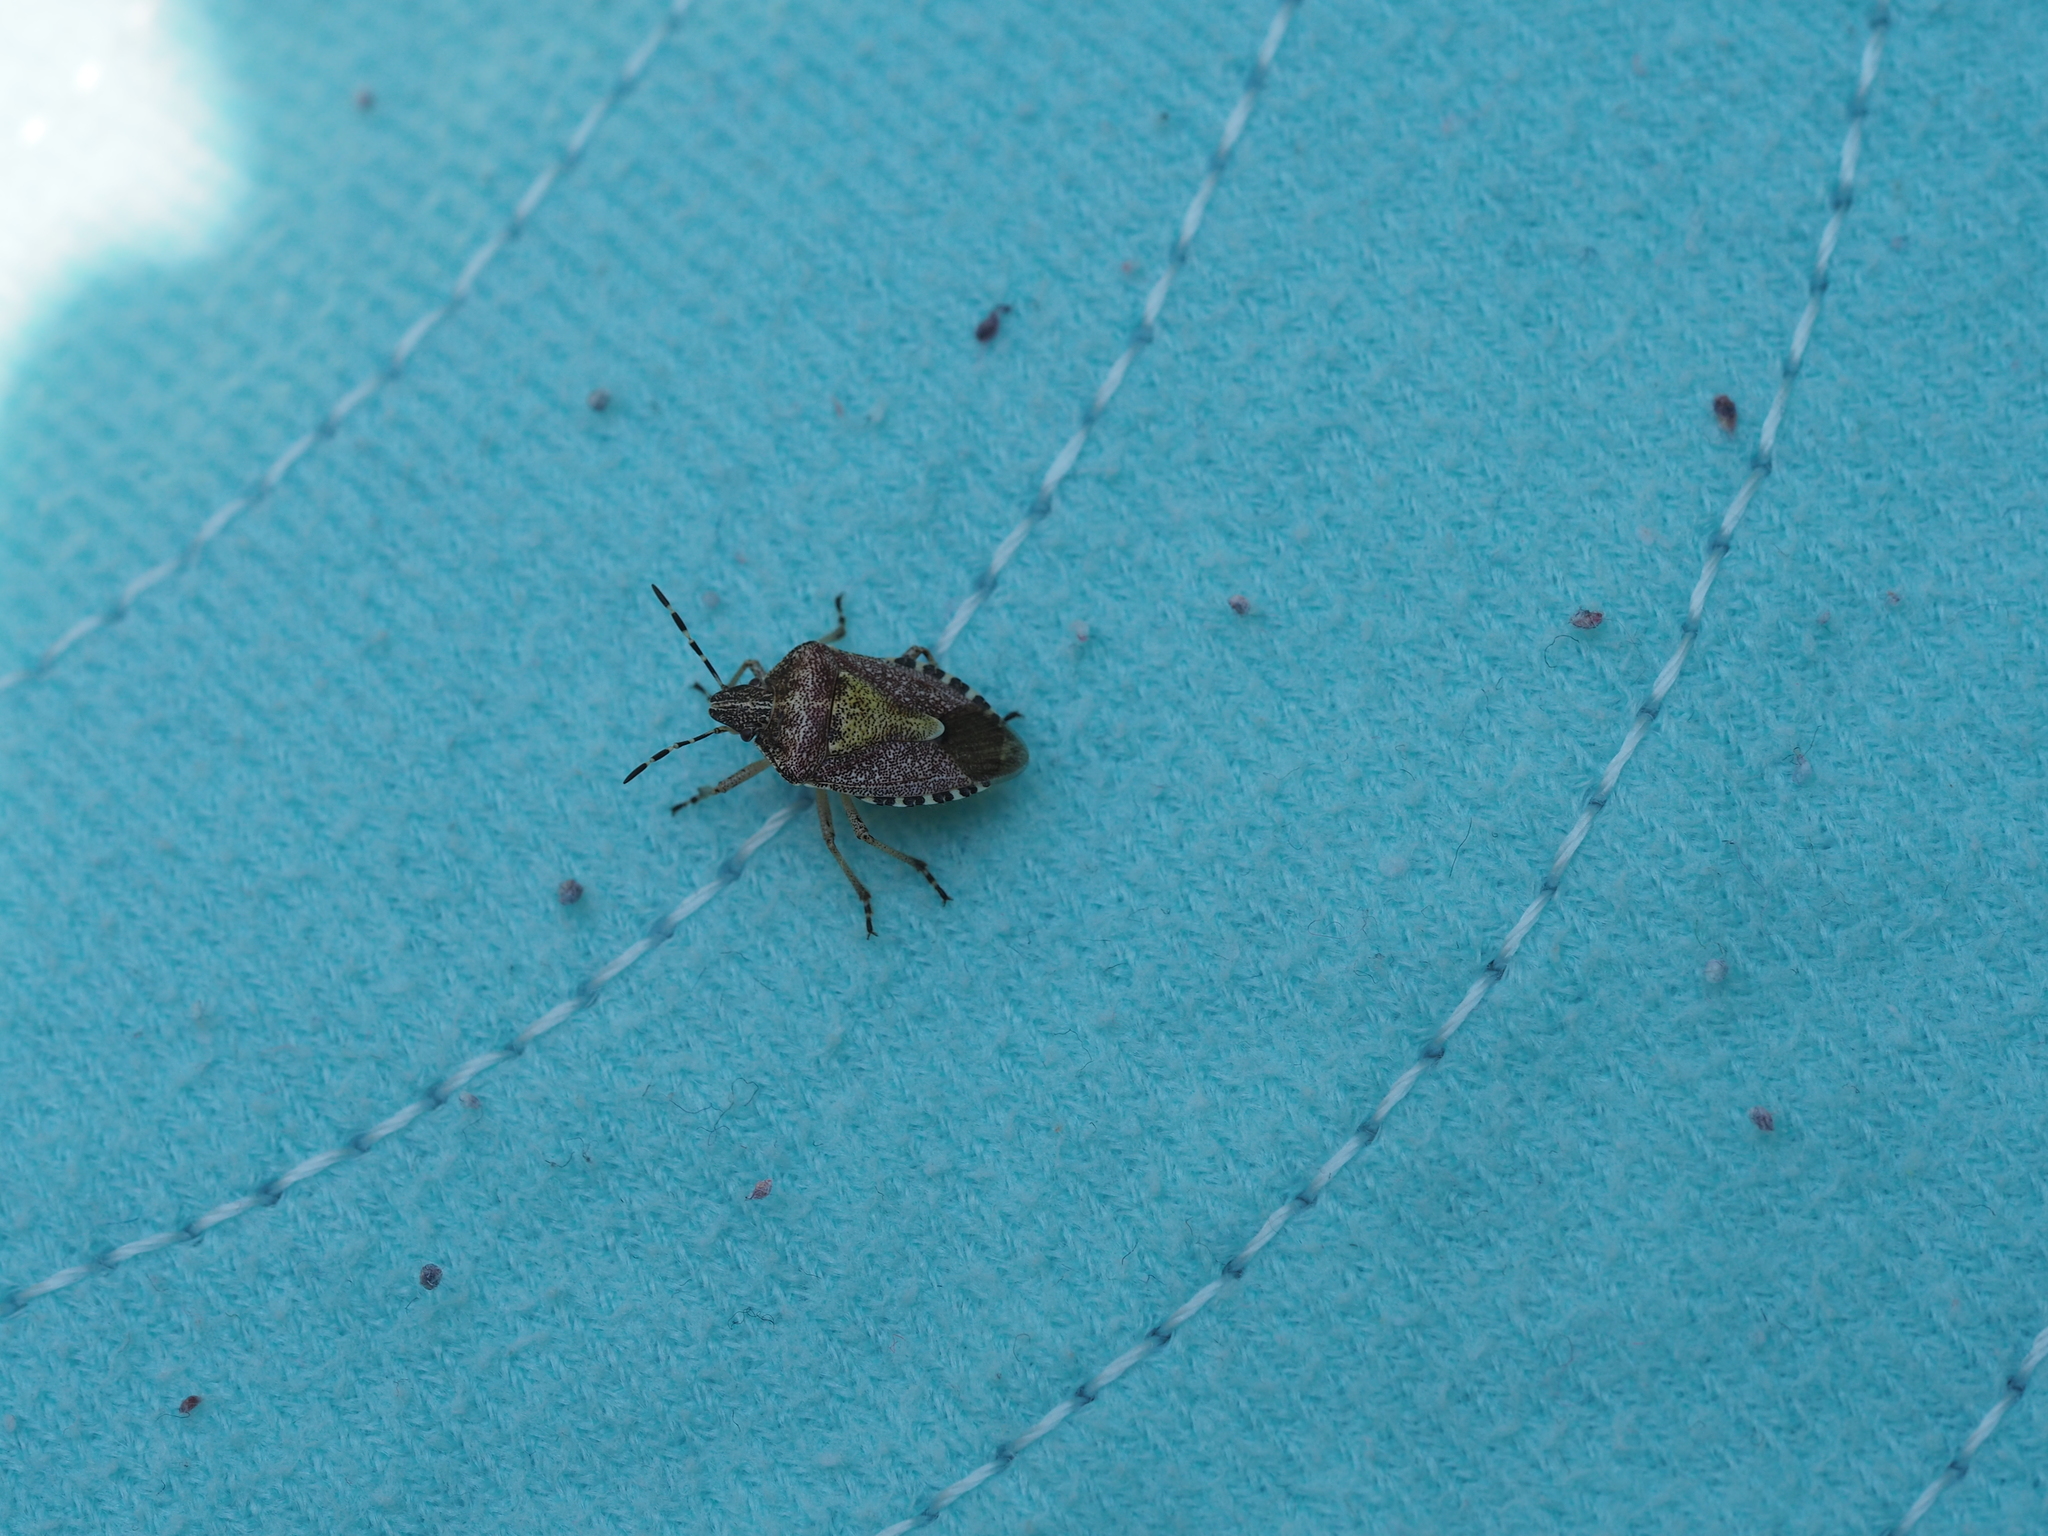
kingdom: Animalia
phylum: Arthropoda
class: Insecta
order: Hemiptera
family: Pentatomidae
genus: Dolycoris
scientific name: Dolycoris baccarum
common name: Sloe bug
